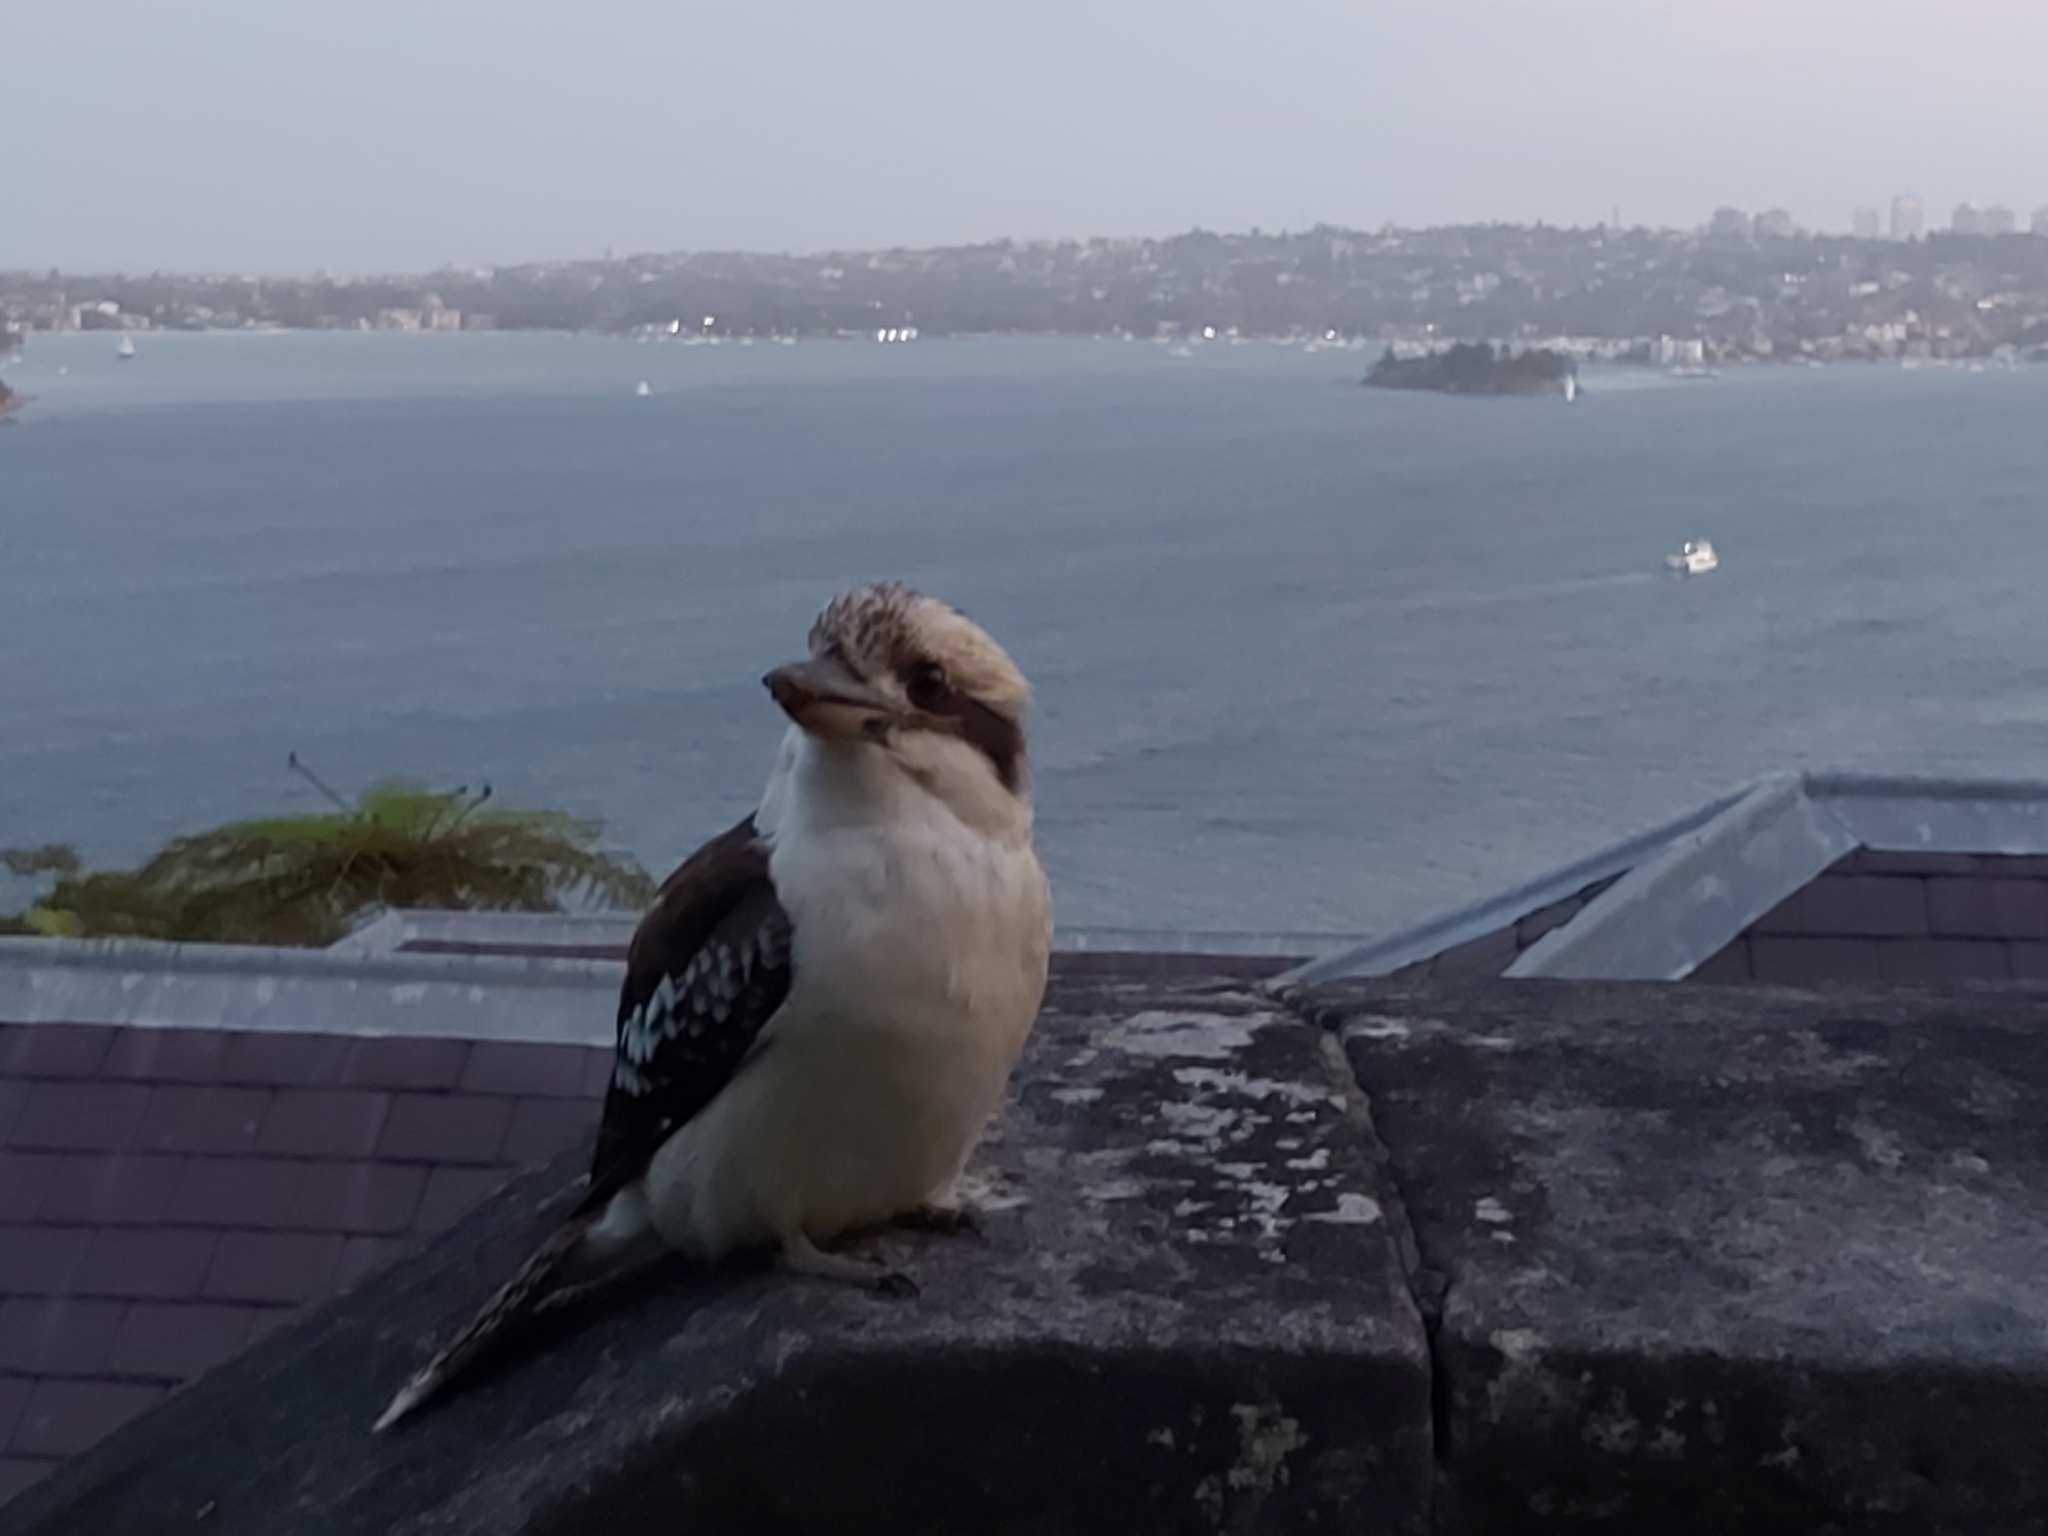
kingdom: Animalia
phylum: Chordata
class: Aves
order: Coraciiformes
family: Alcedinidae
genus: Dacelo
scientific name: Dacelo novaeguineae
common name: Laughing kookaburra
